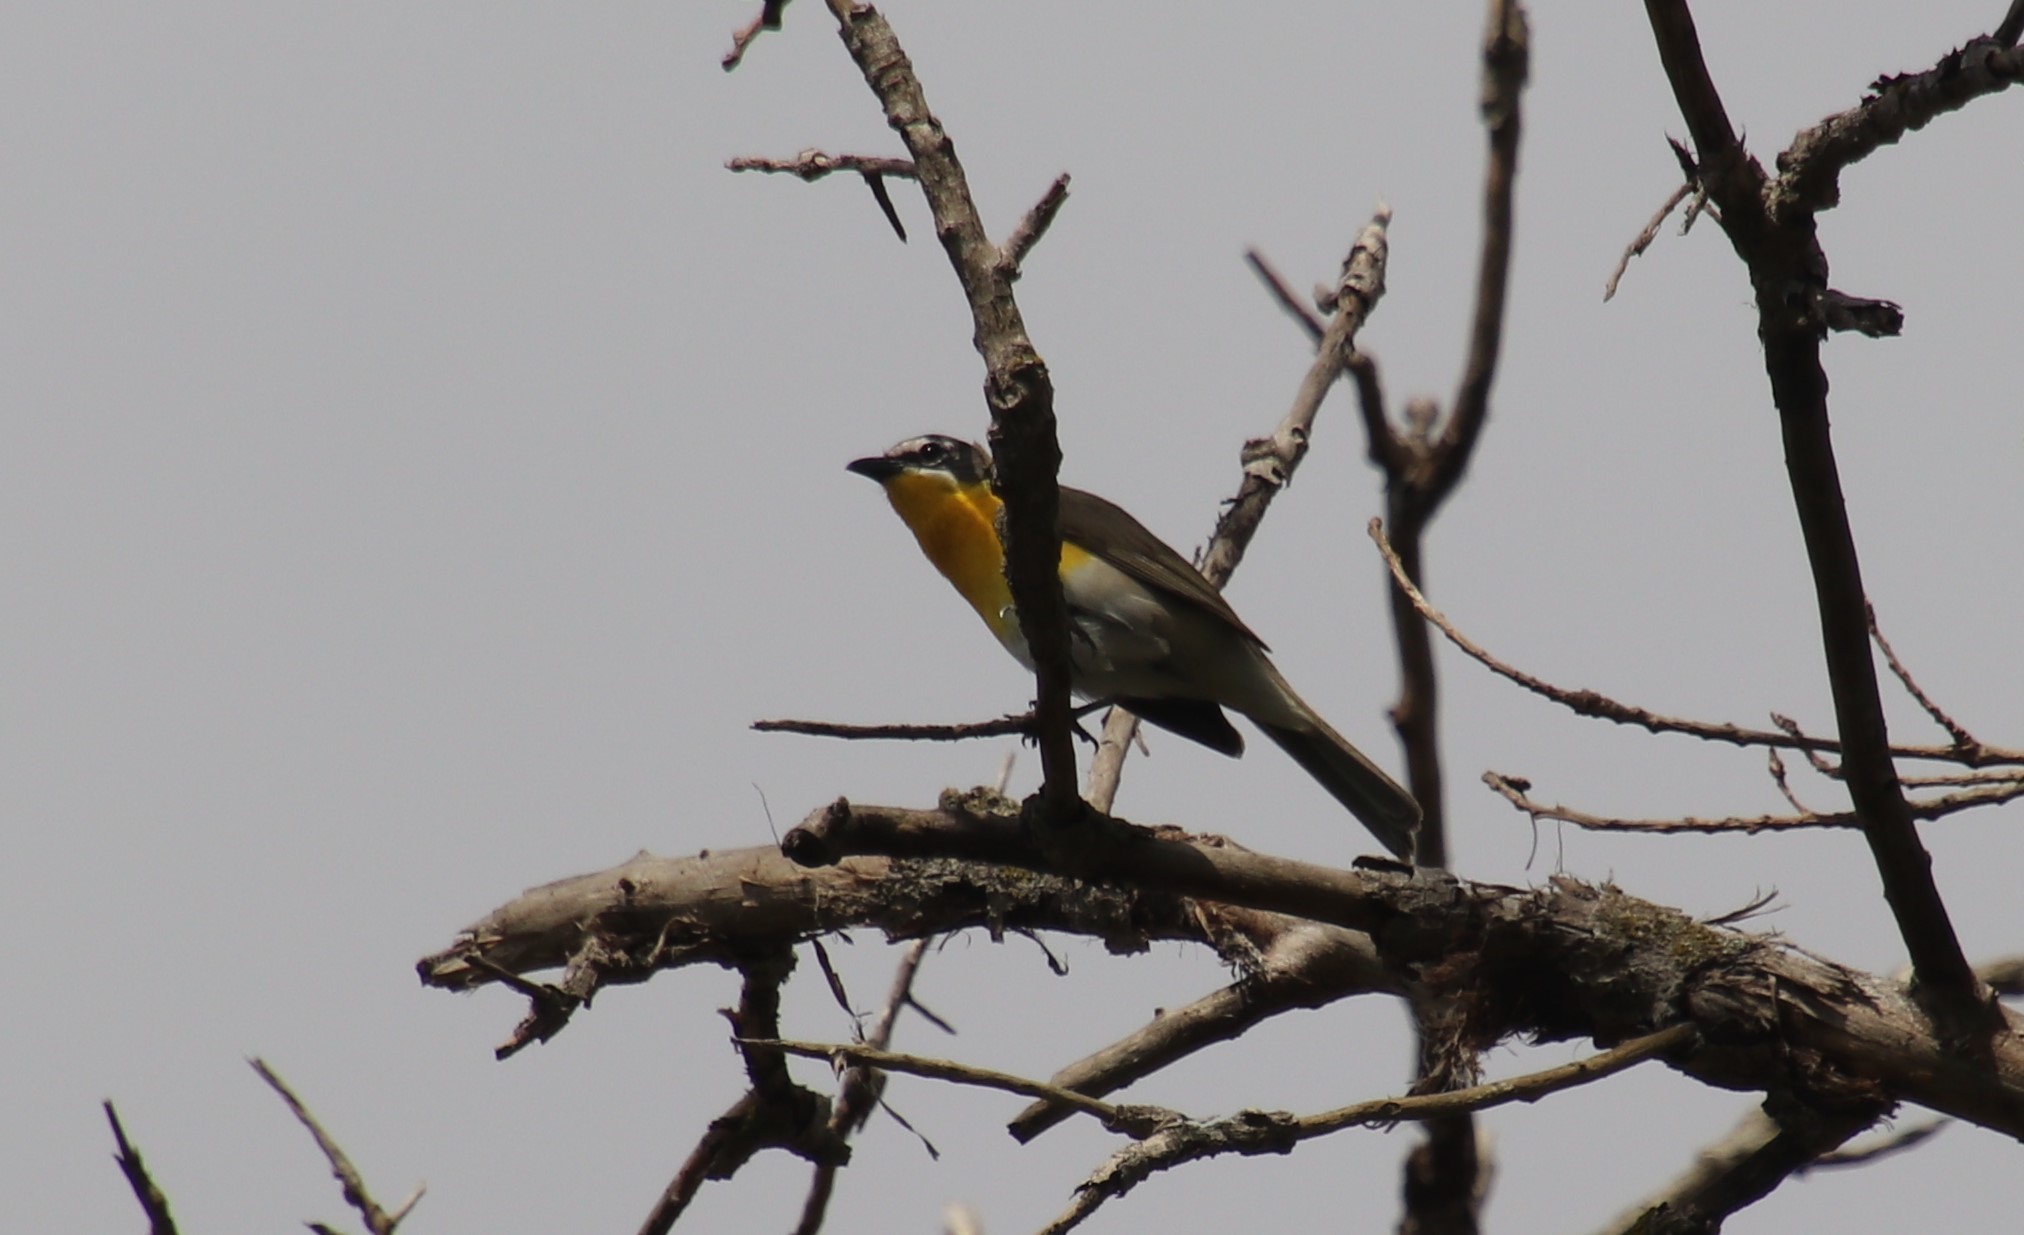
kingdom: Animalia
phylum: Chordata
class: Aves
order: Passeriformes
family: Parulidae
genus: Icteria
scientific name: Icteria virens
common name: Yellow-breasted chat
